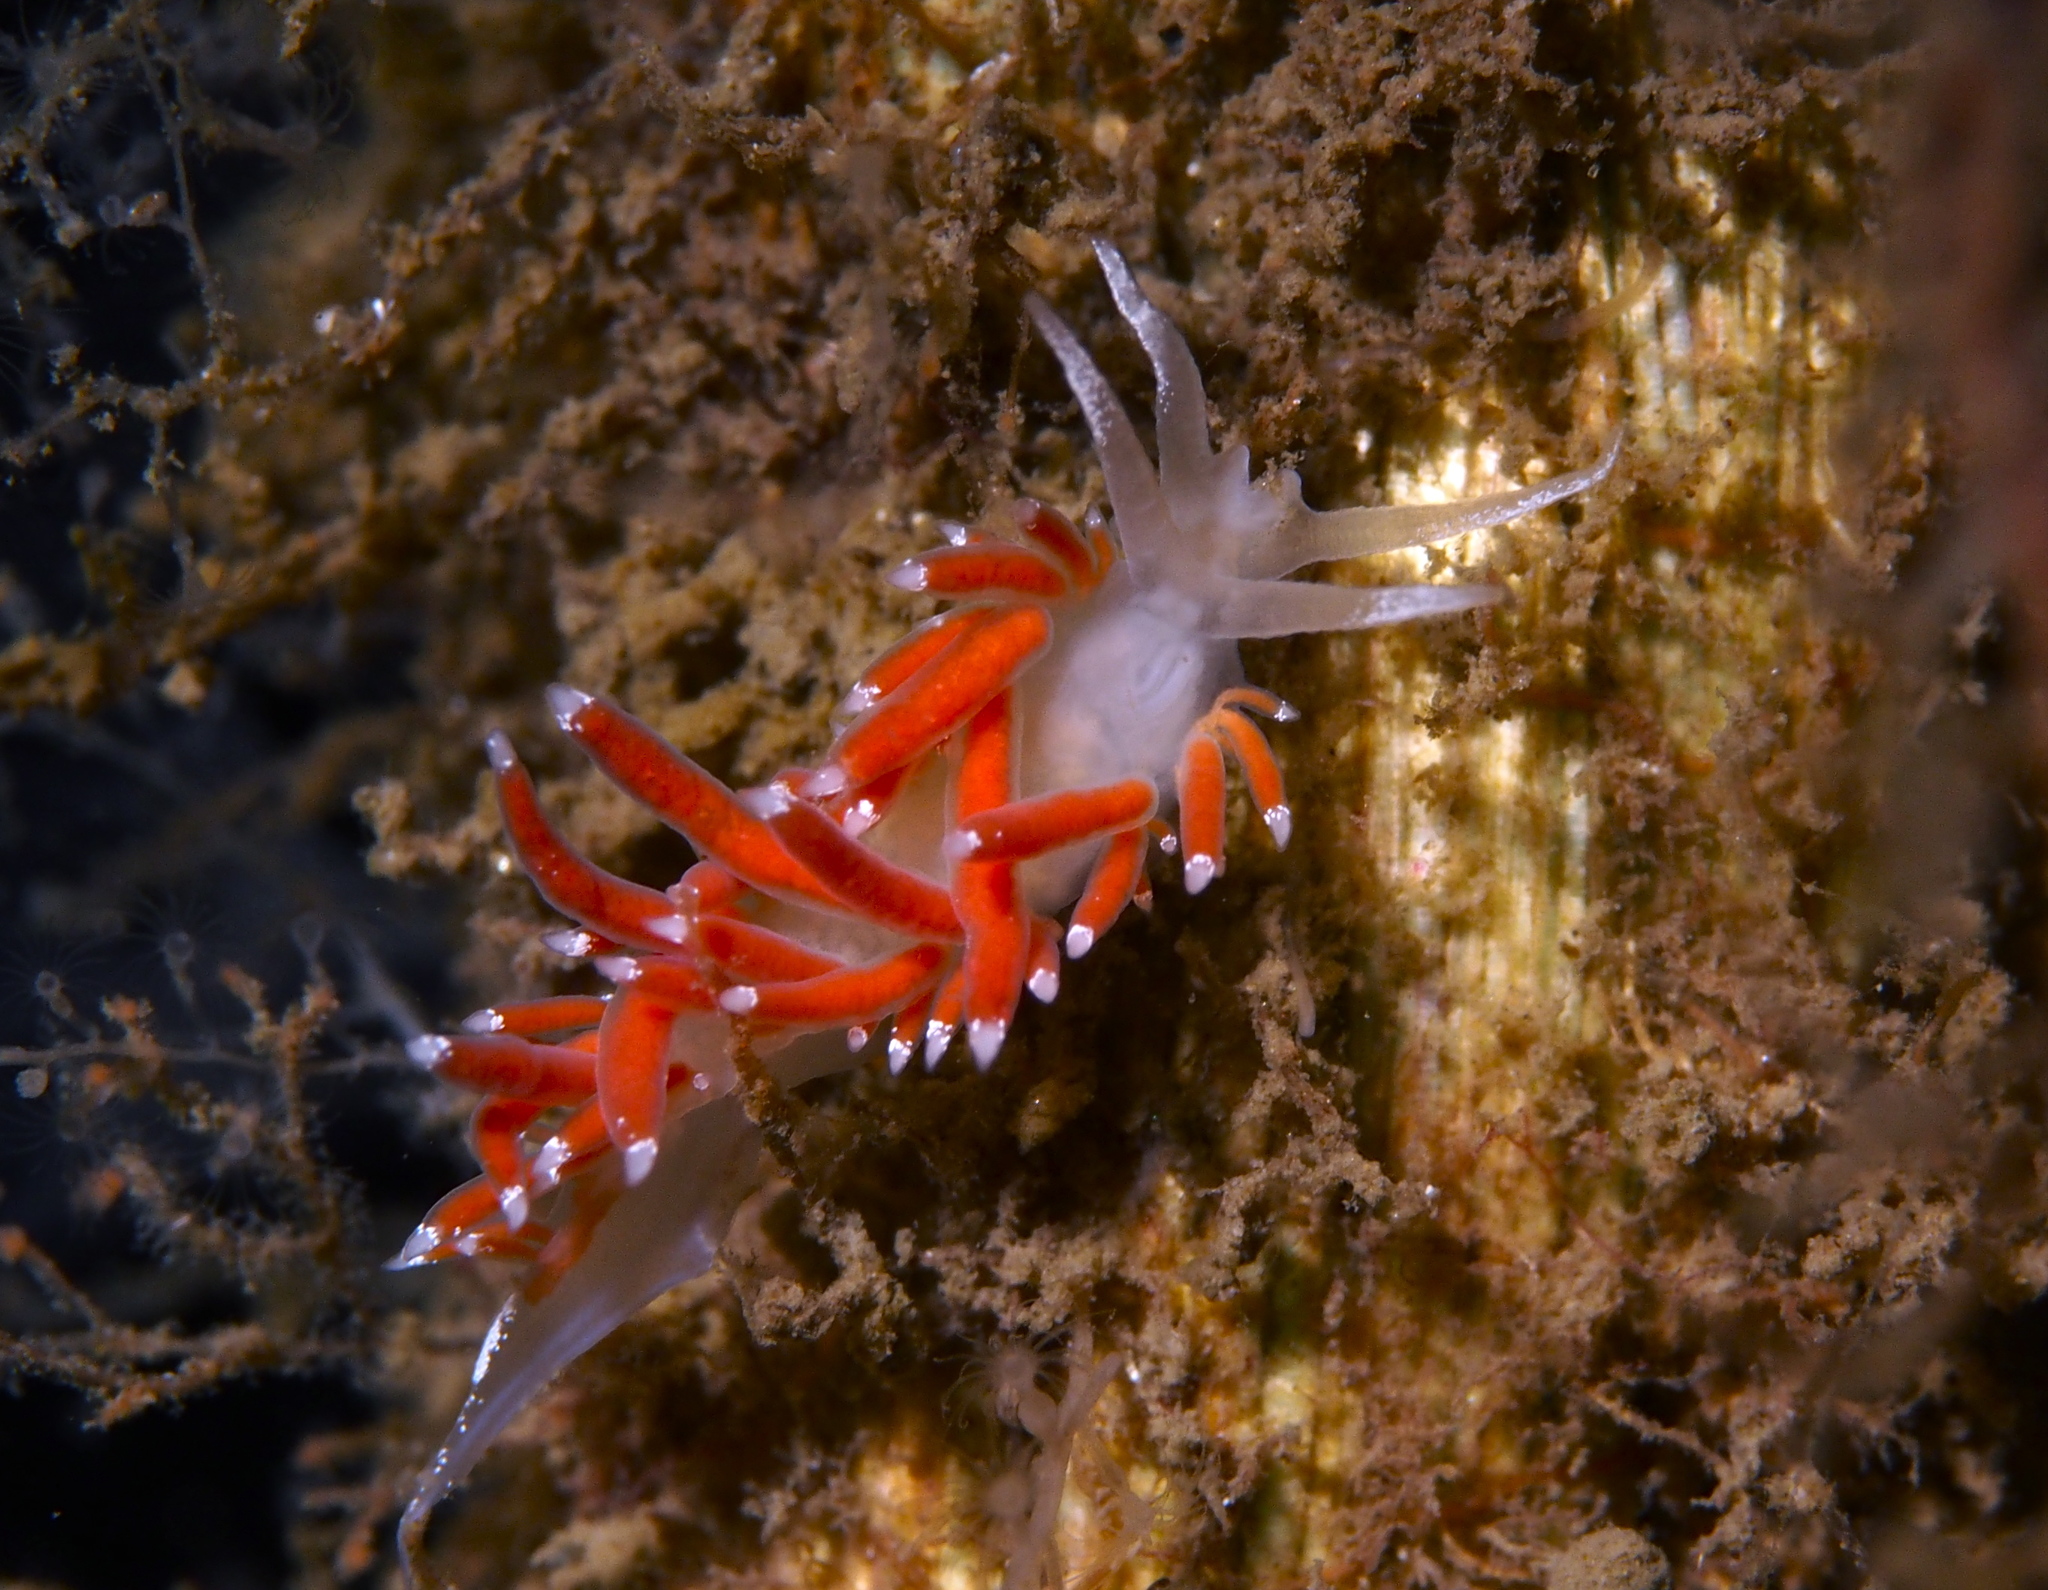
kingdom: Animalia
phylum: Mollusca
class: Gastropoda
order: Nudibranchia
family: Coryphellidae
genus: Coryphella
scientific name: Coryphella gracilis
